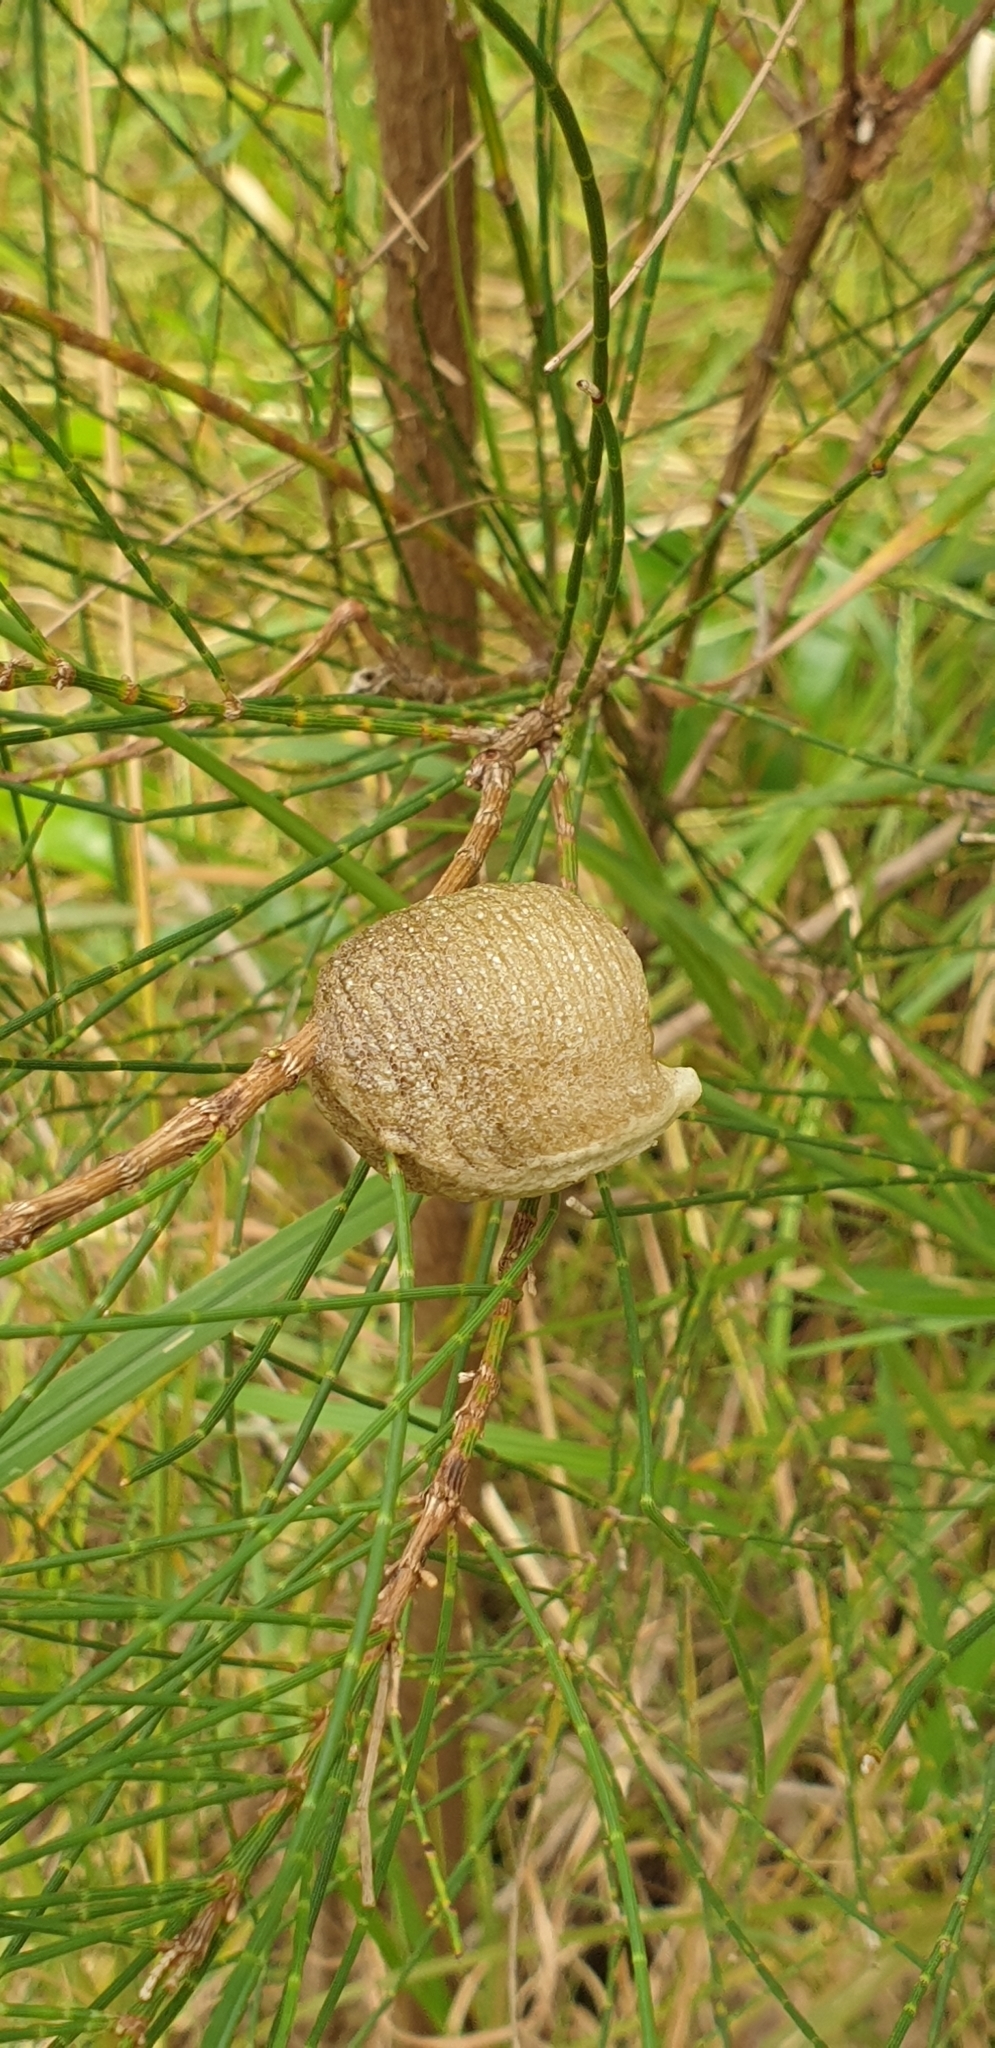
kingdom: Animalia
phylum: Arthropoda
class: Insecta
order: Mantodea
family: Mantidae
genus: Archimantis
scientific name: Archimantis latistyla
